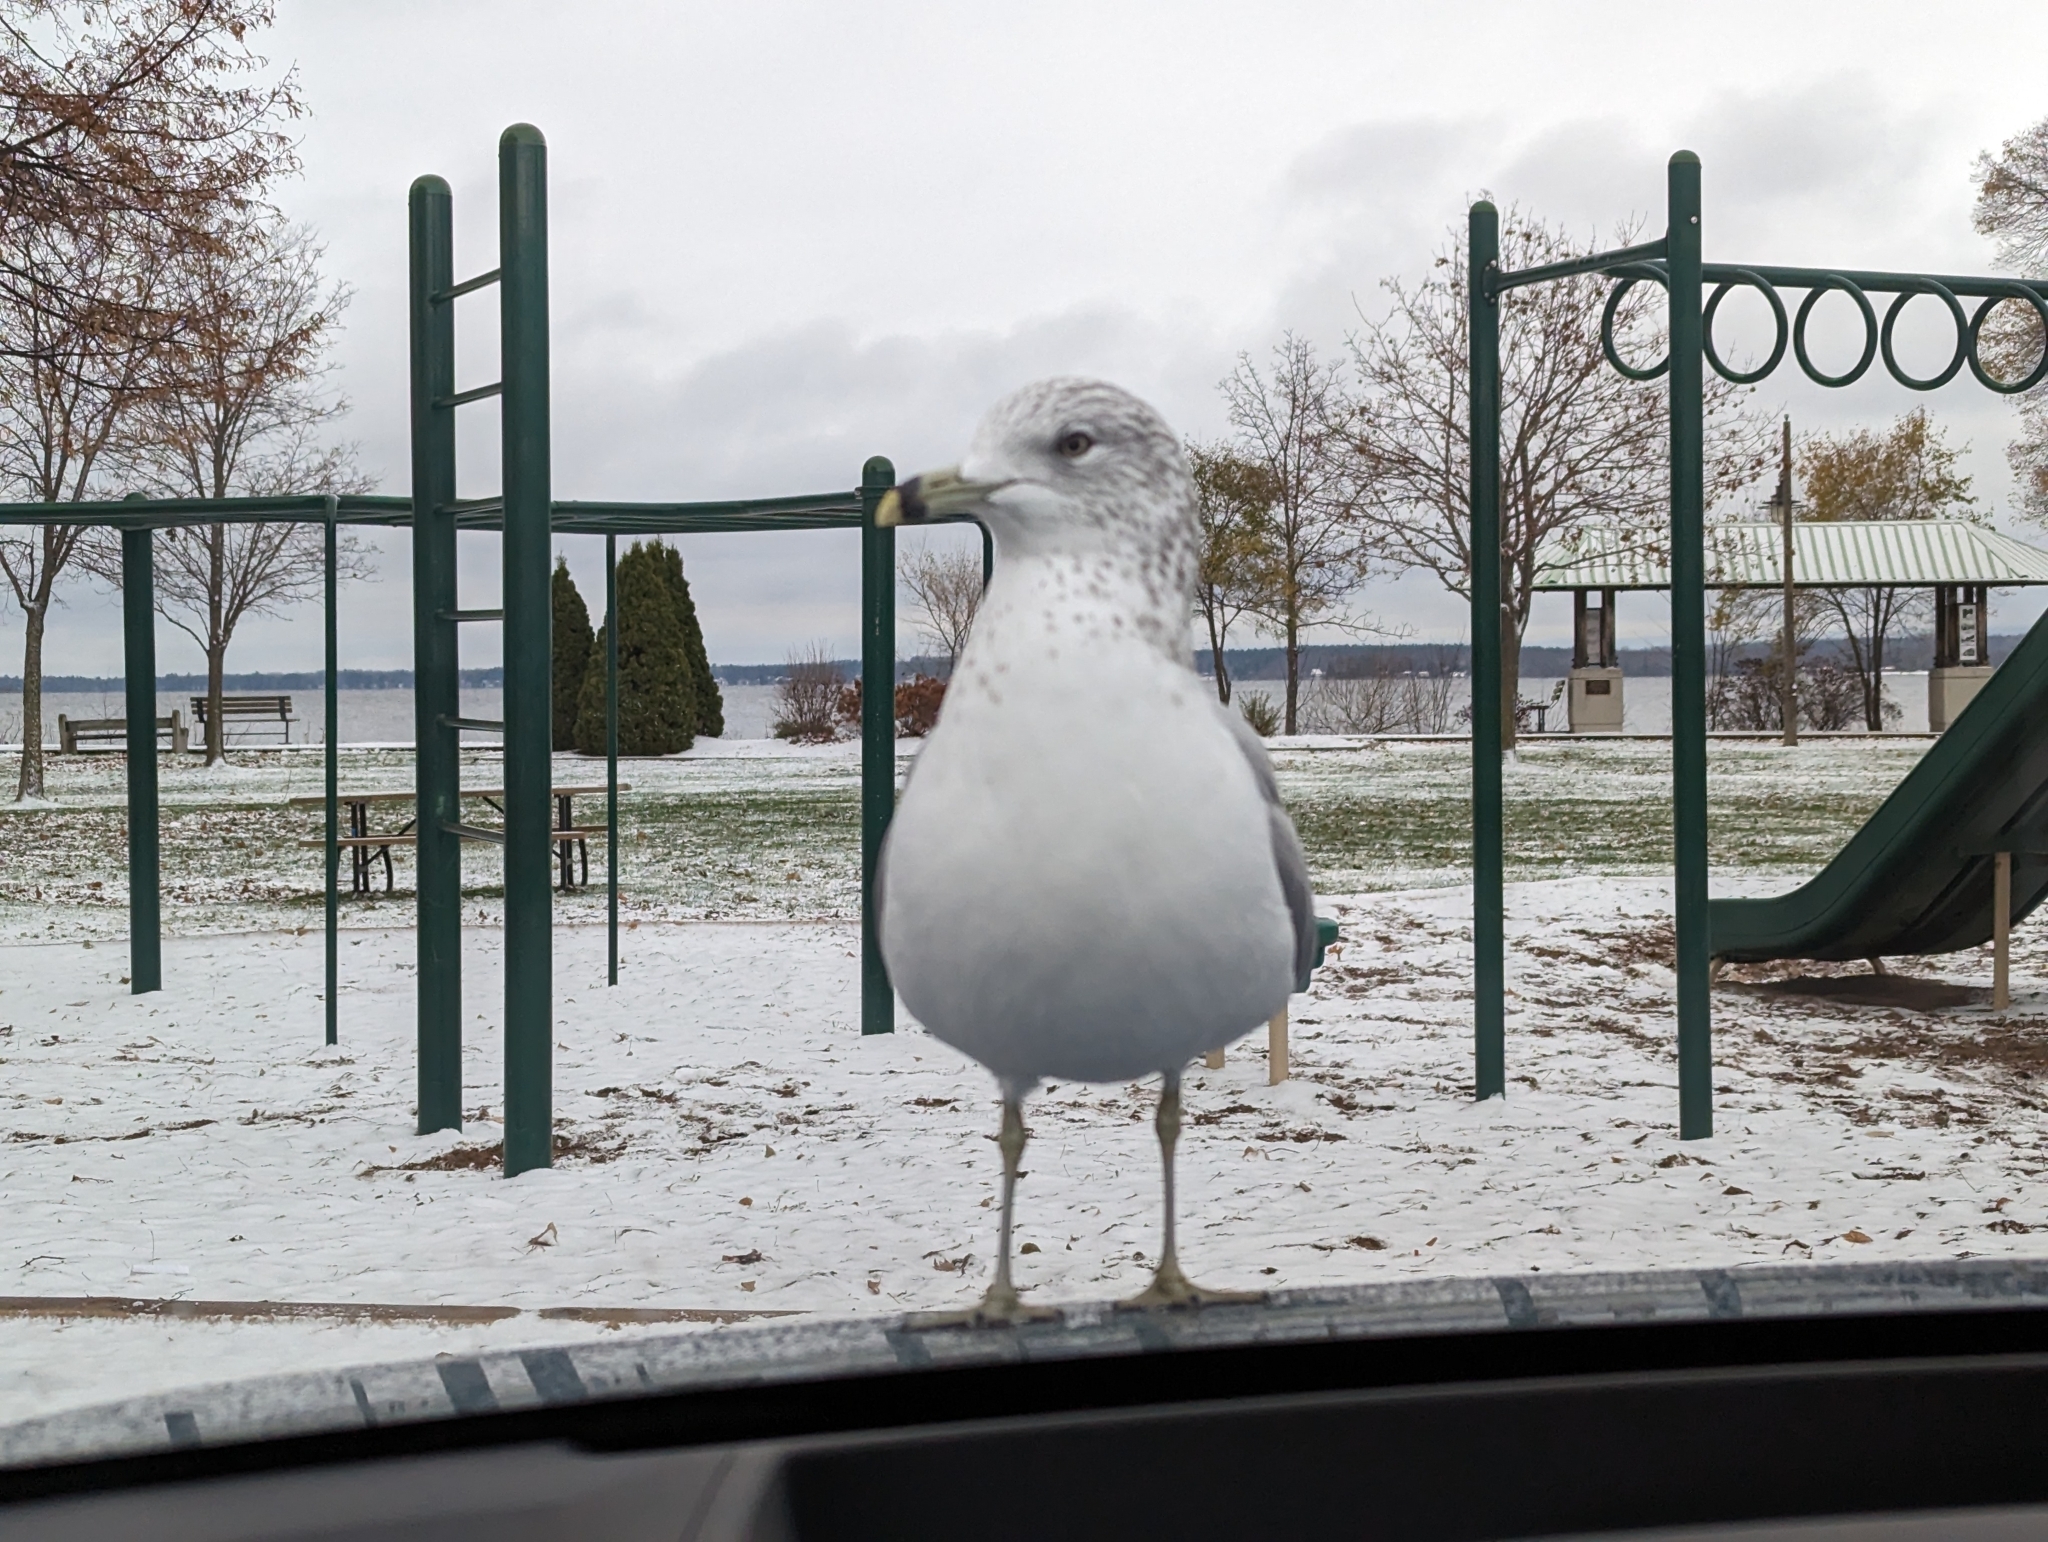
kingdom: Animalia
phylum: Chordata
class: Aves
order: Charadriiformes
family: Laridae
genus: Larus
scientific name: Larus delawarensis
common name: Ring-billed gull
